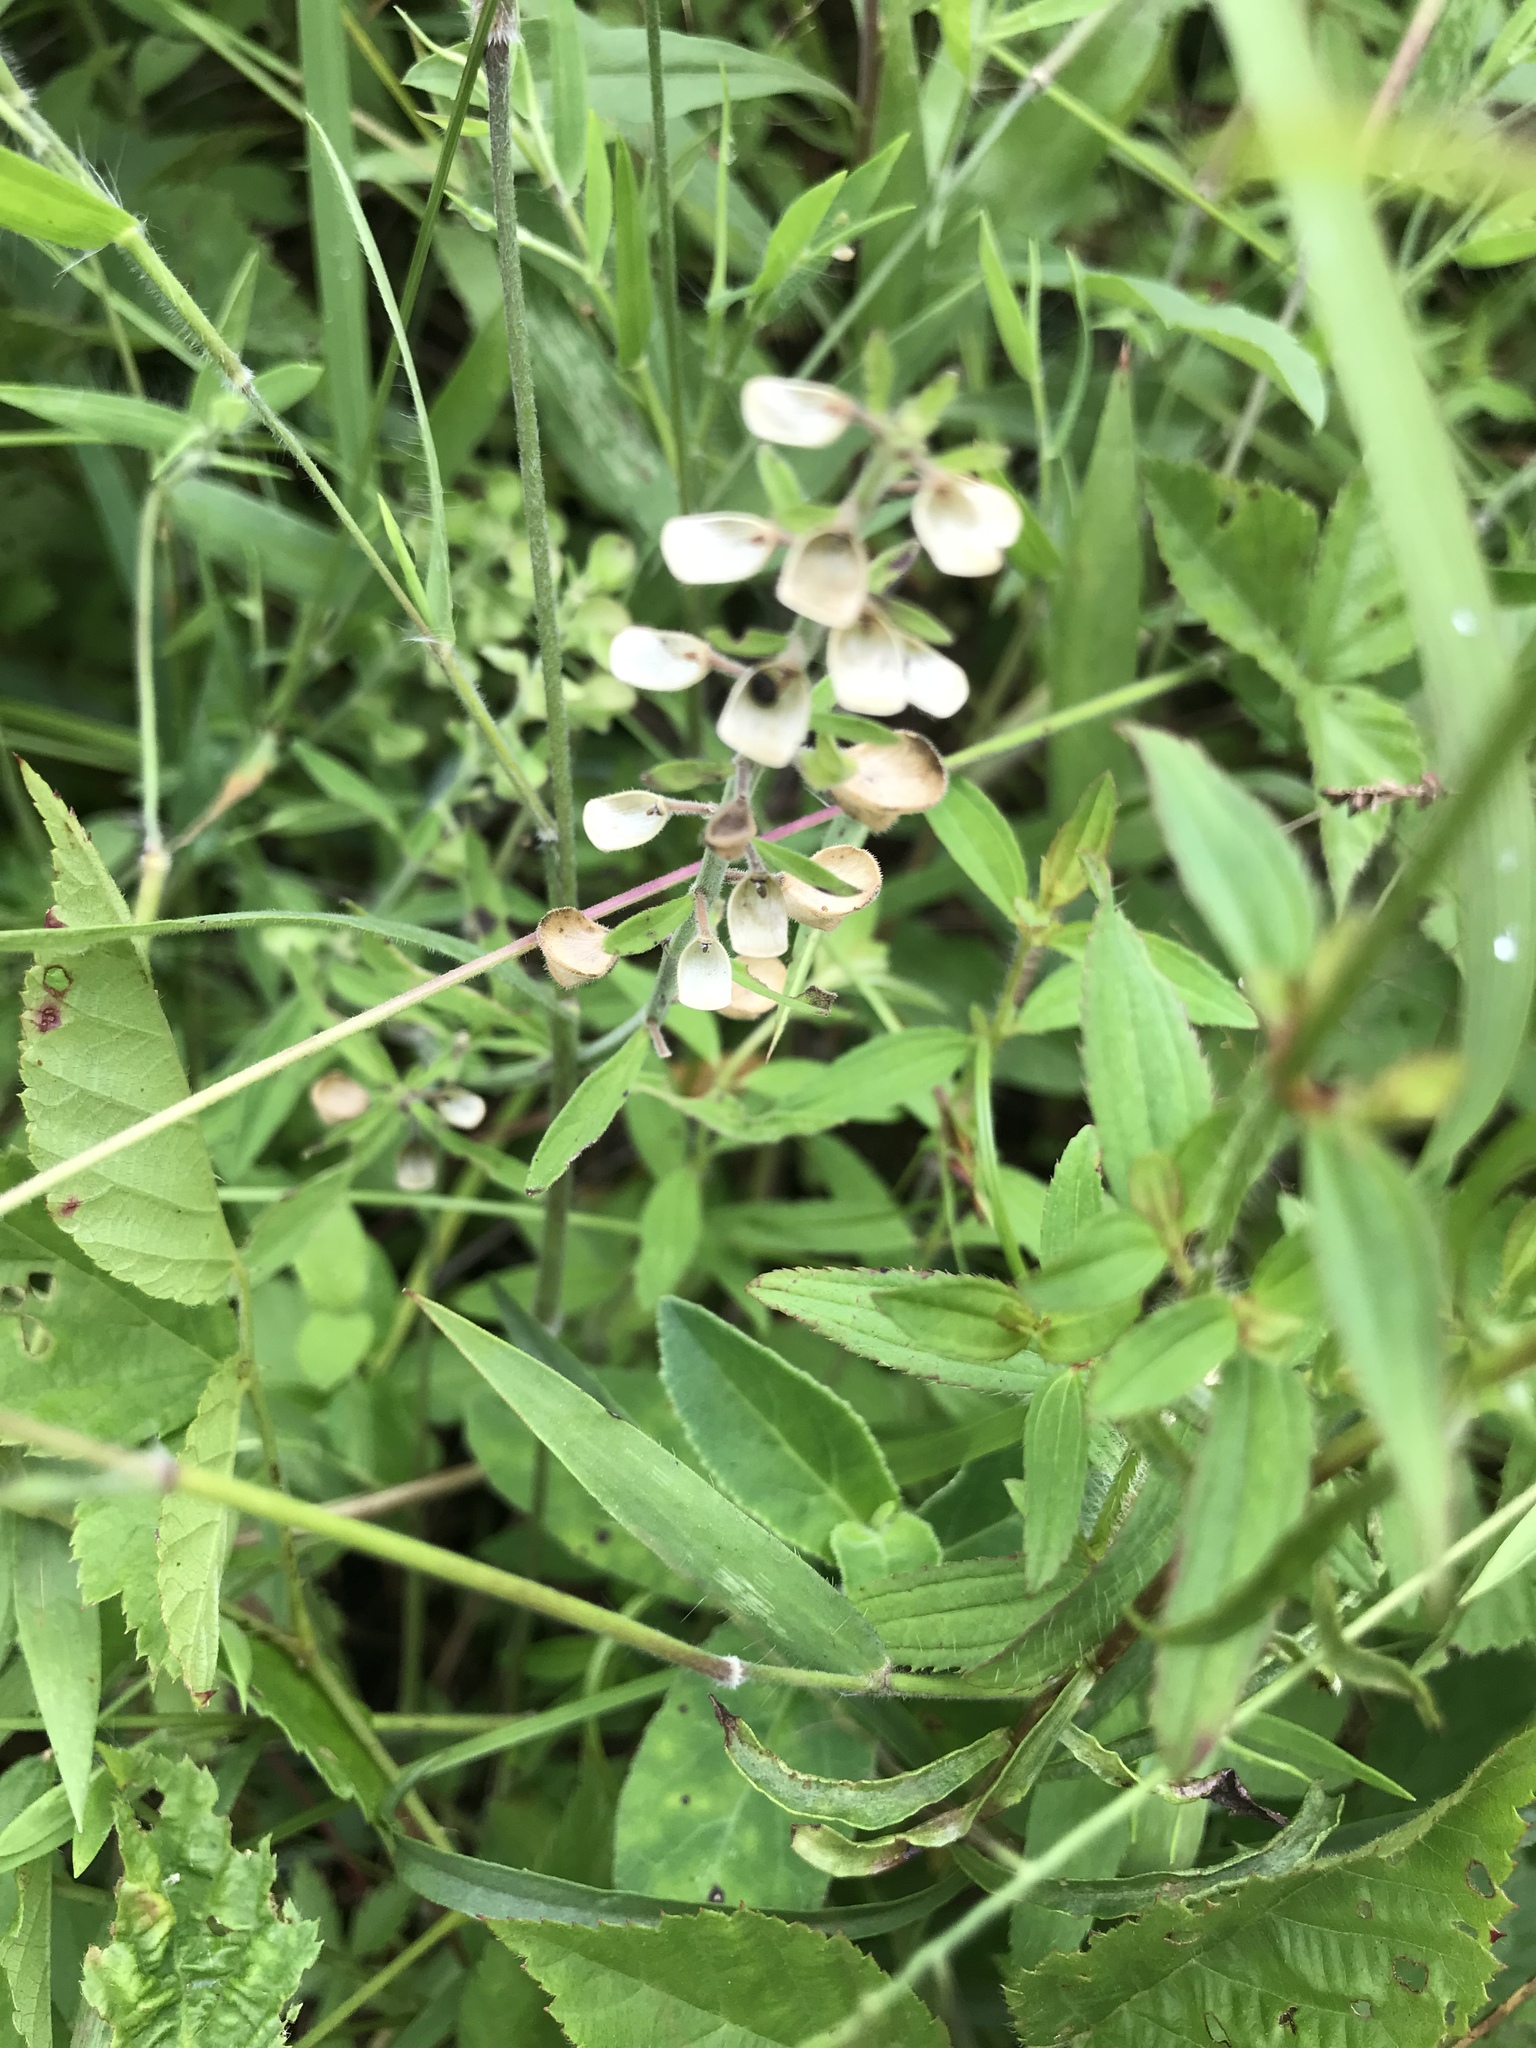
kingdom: Plantae
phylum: Tracheophyta
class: Magnoliopsida
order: Lamiales
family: Lamiaceae
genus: Scutellaria
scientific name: Scutellaria integrifolia
